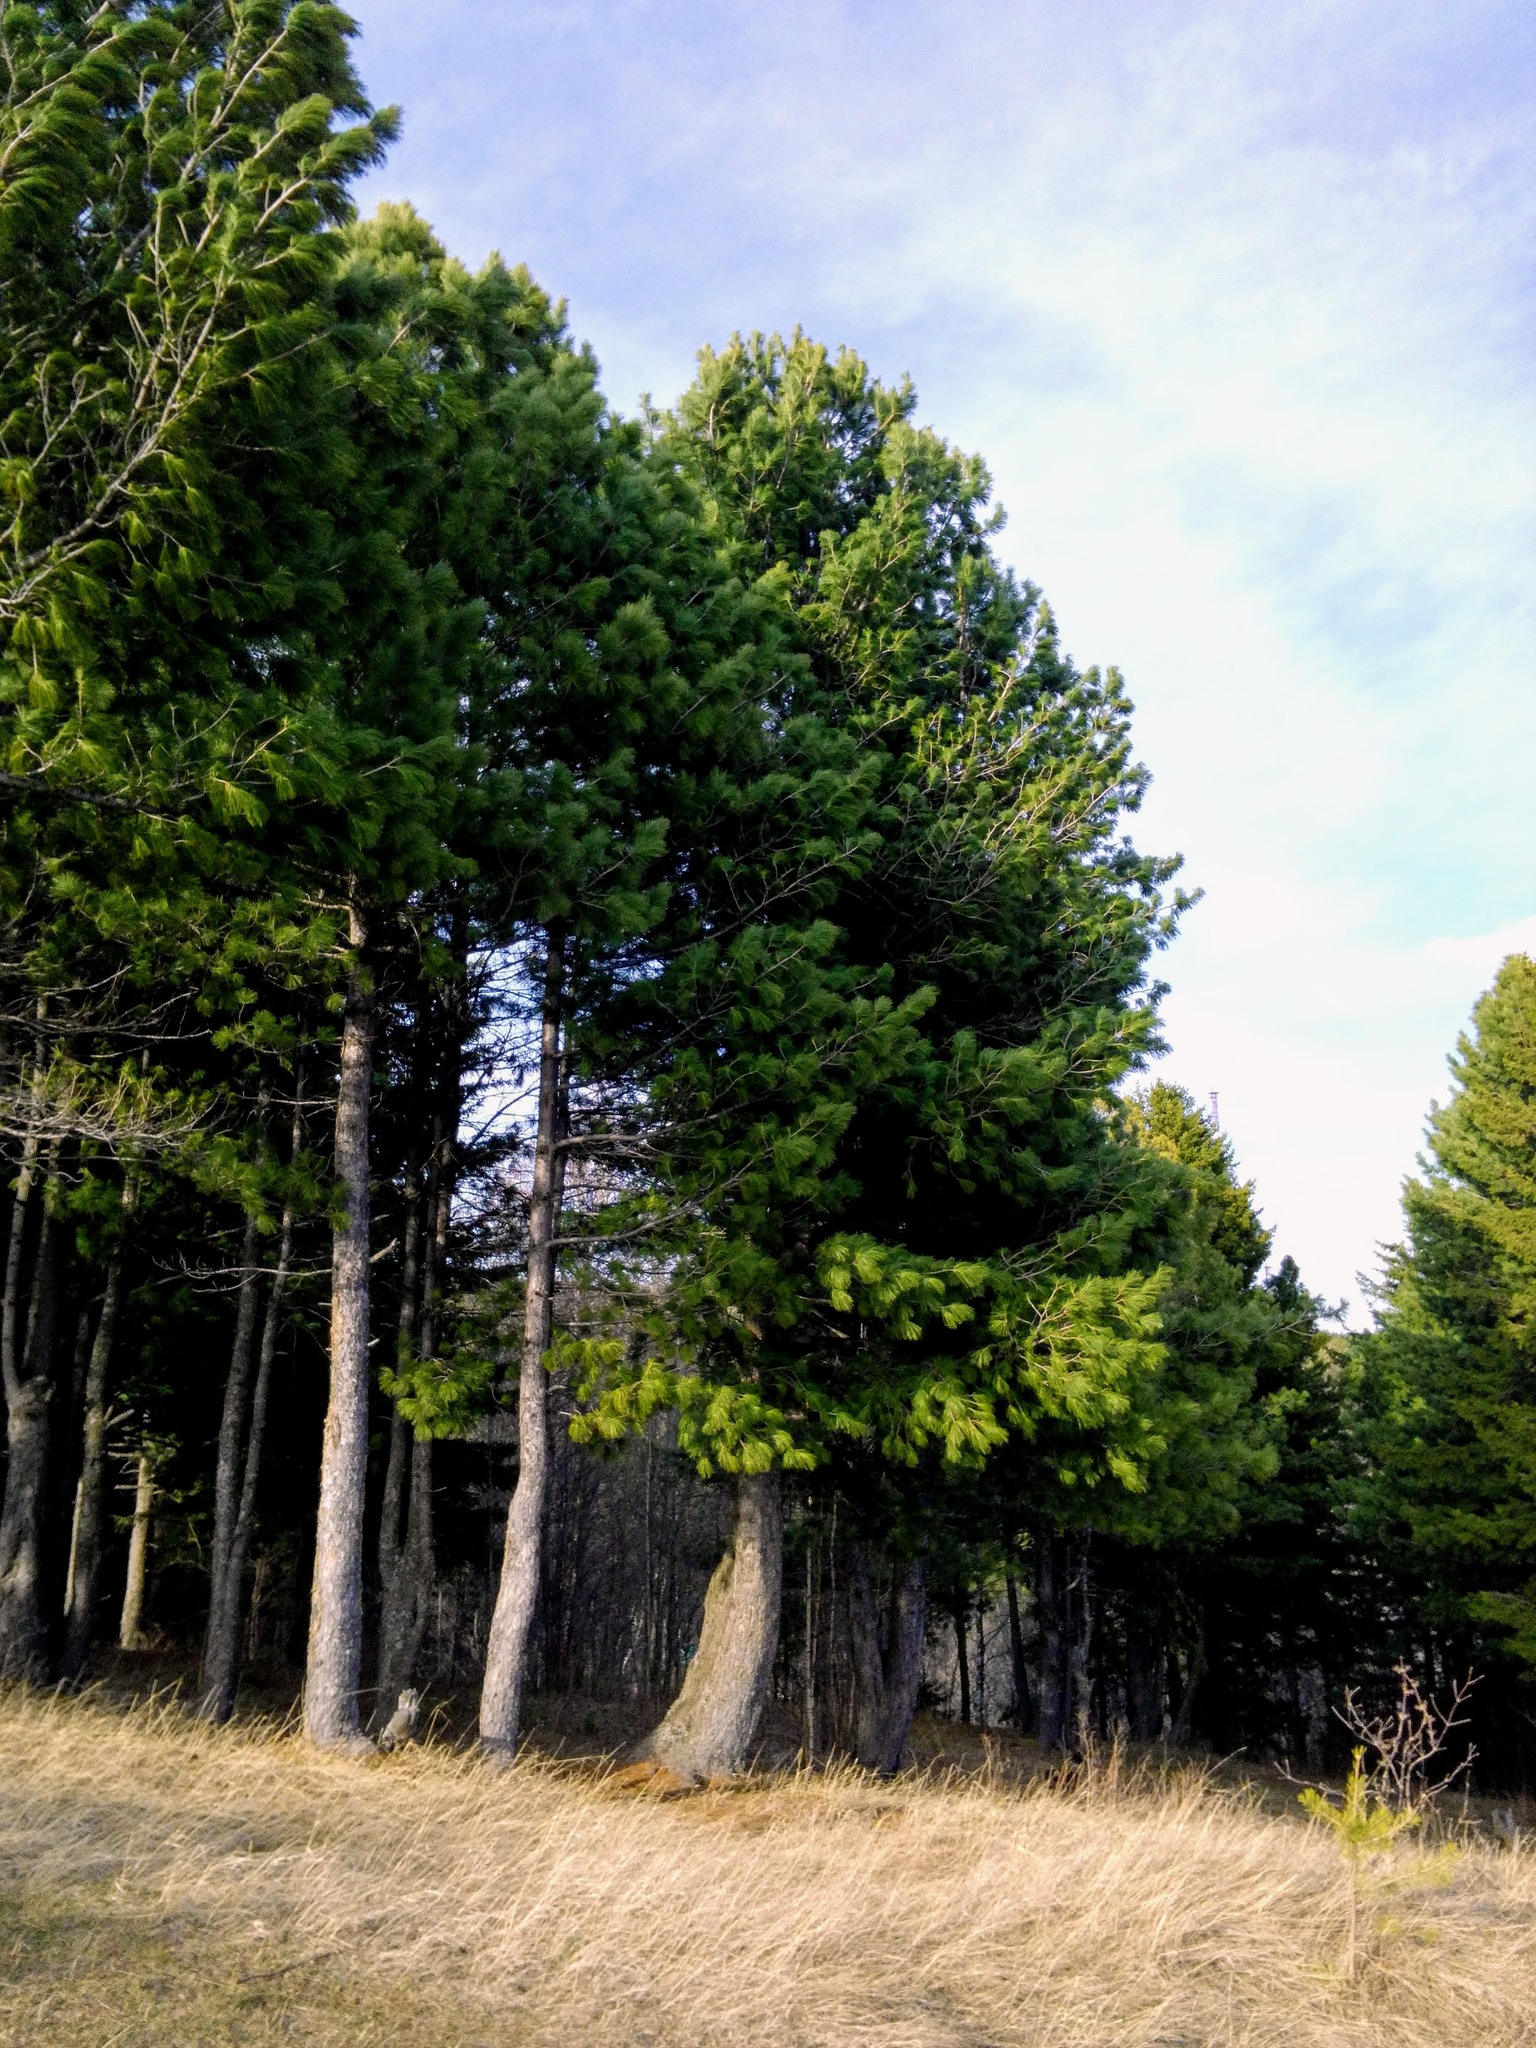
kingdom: Plantae
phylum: Tracheophyta
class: Pinopsida
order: Pinales
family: Pinaceae
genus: Pinus
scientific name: Pinus sibirica
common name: Siberian pine
